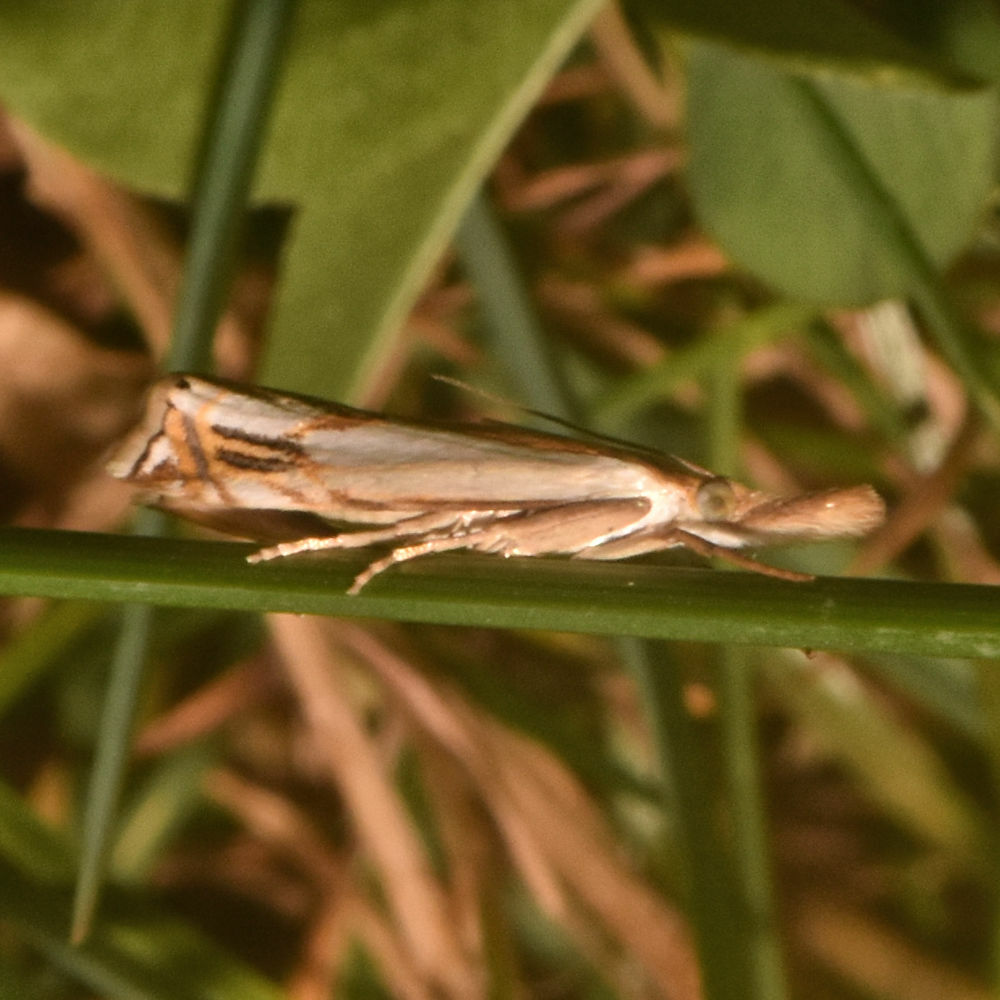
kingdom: Animalia
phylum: Arthropoda
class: Insecta
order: Lepidoptera
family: Crambidae
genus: Crambus
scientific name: Crambus agitatellus
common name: Double-banded grass-veneer
